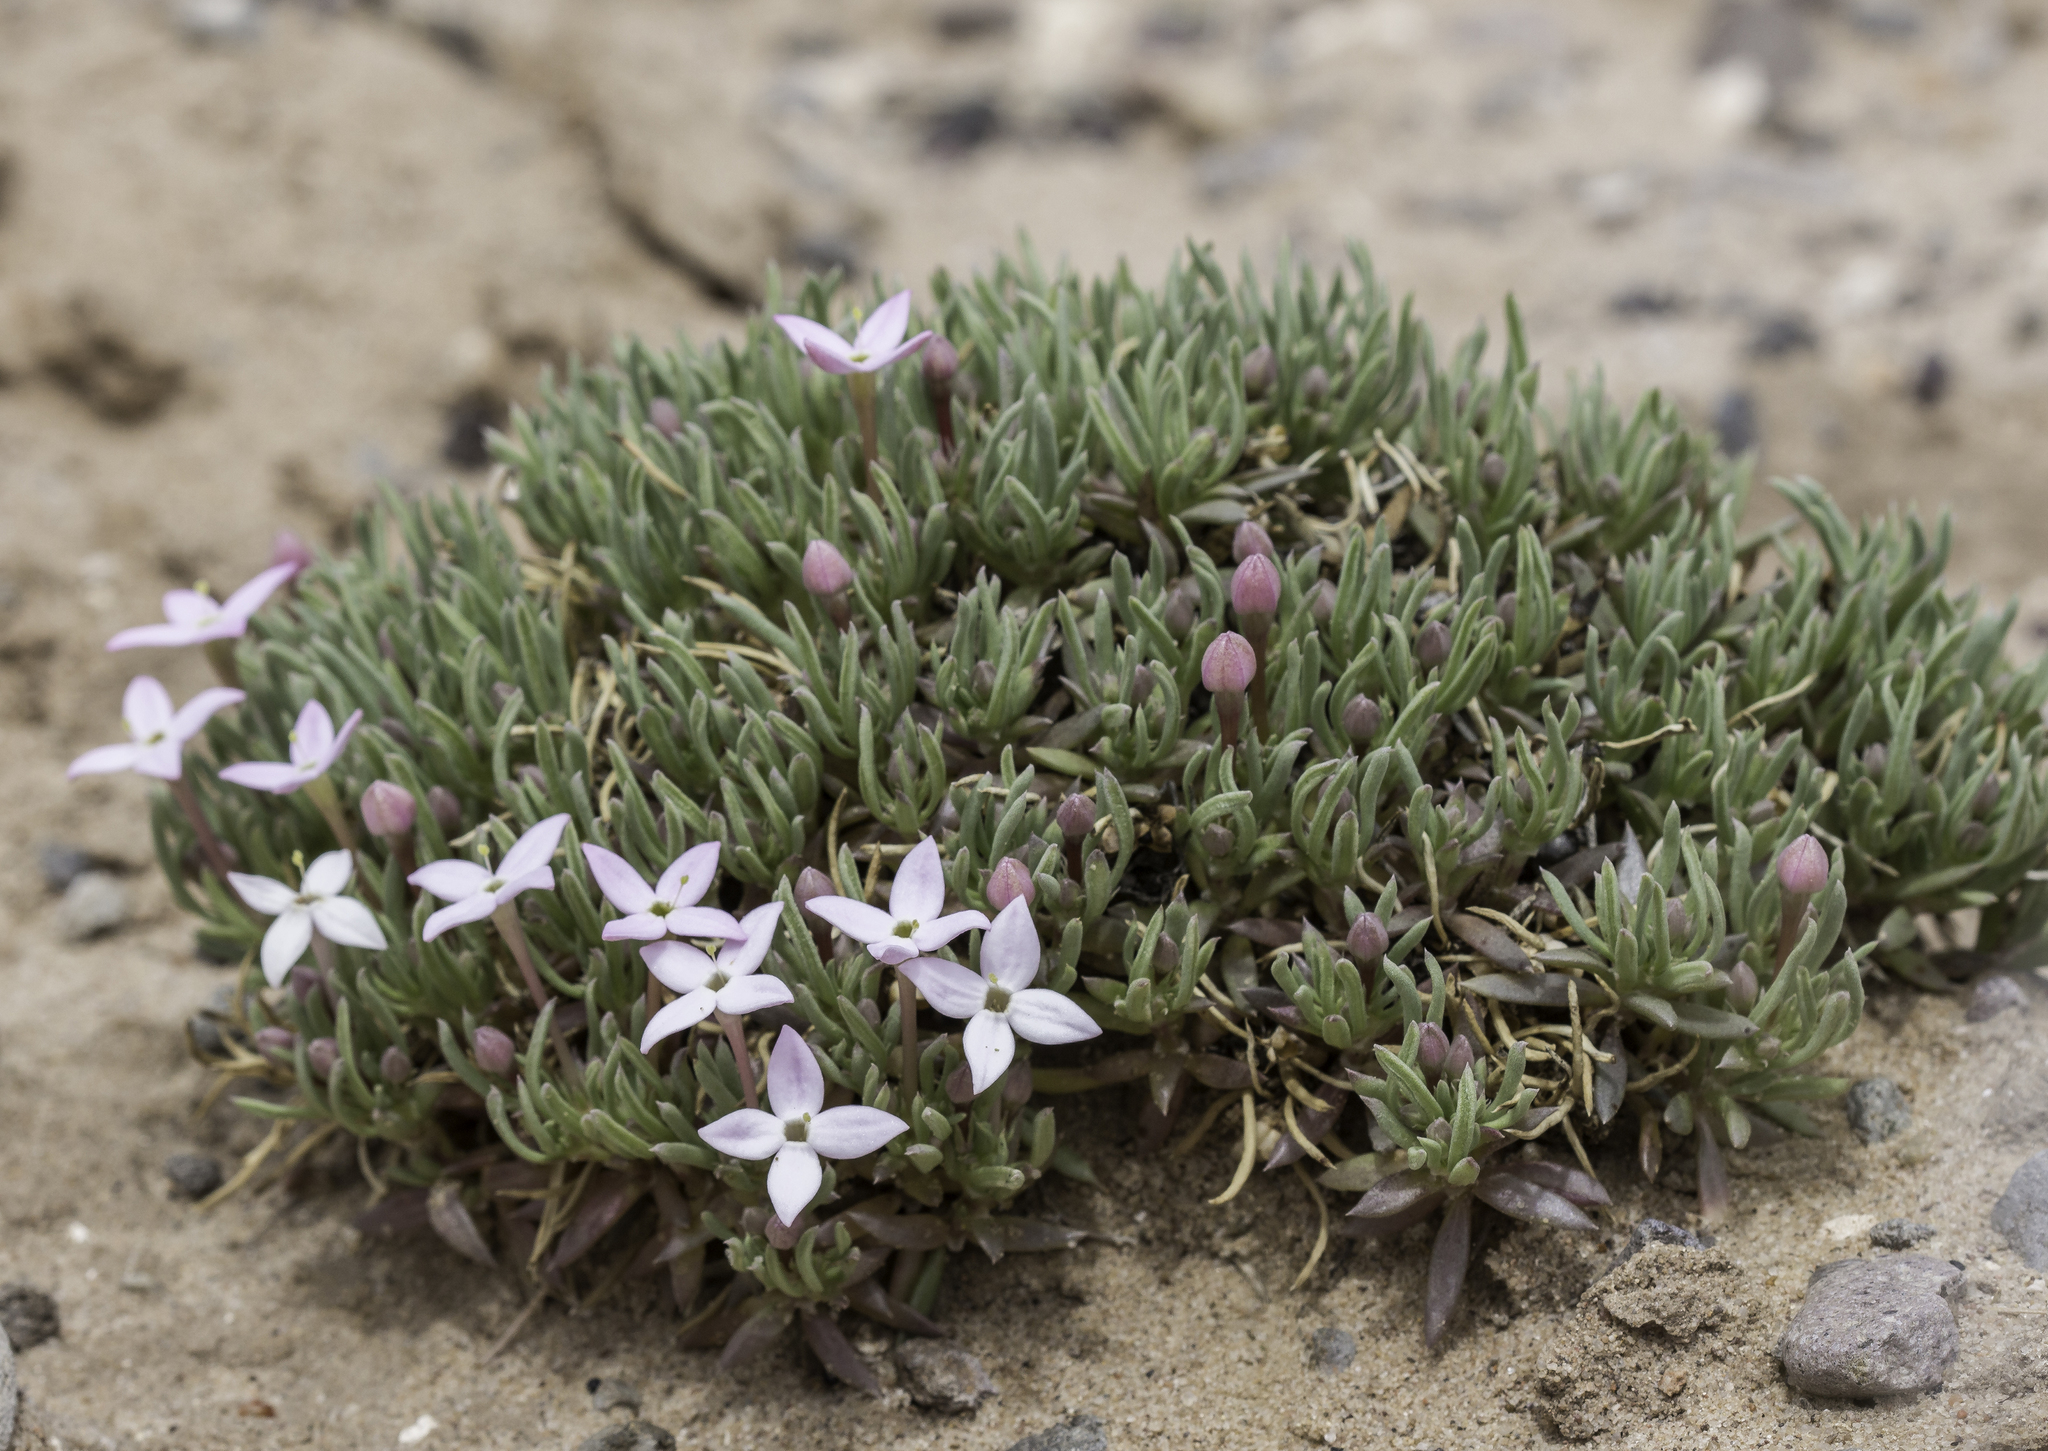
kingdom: Plantae
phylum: Tracheophyta
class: Magnoliopsida
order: Gentianales
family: Rubiaceae
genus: Houstonia
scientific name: Houstonia rubra
